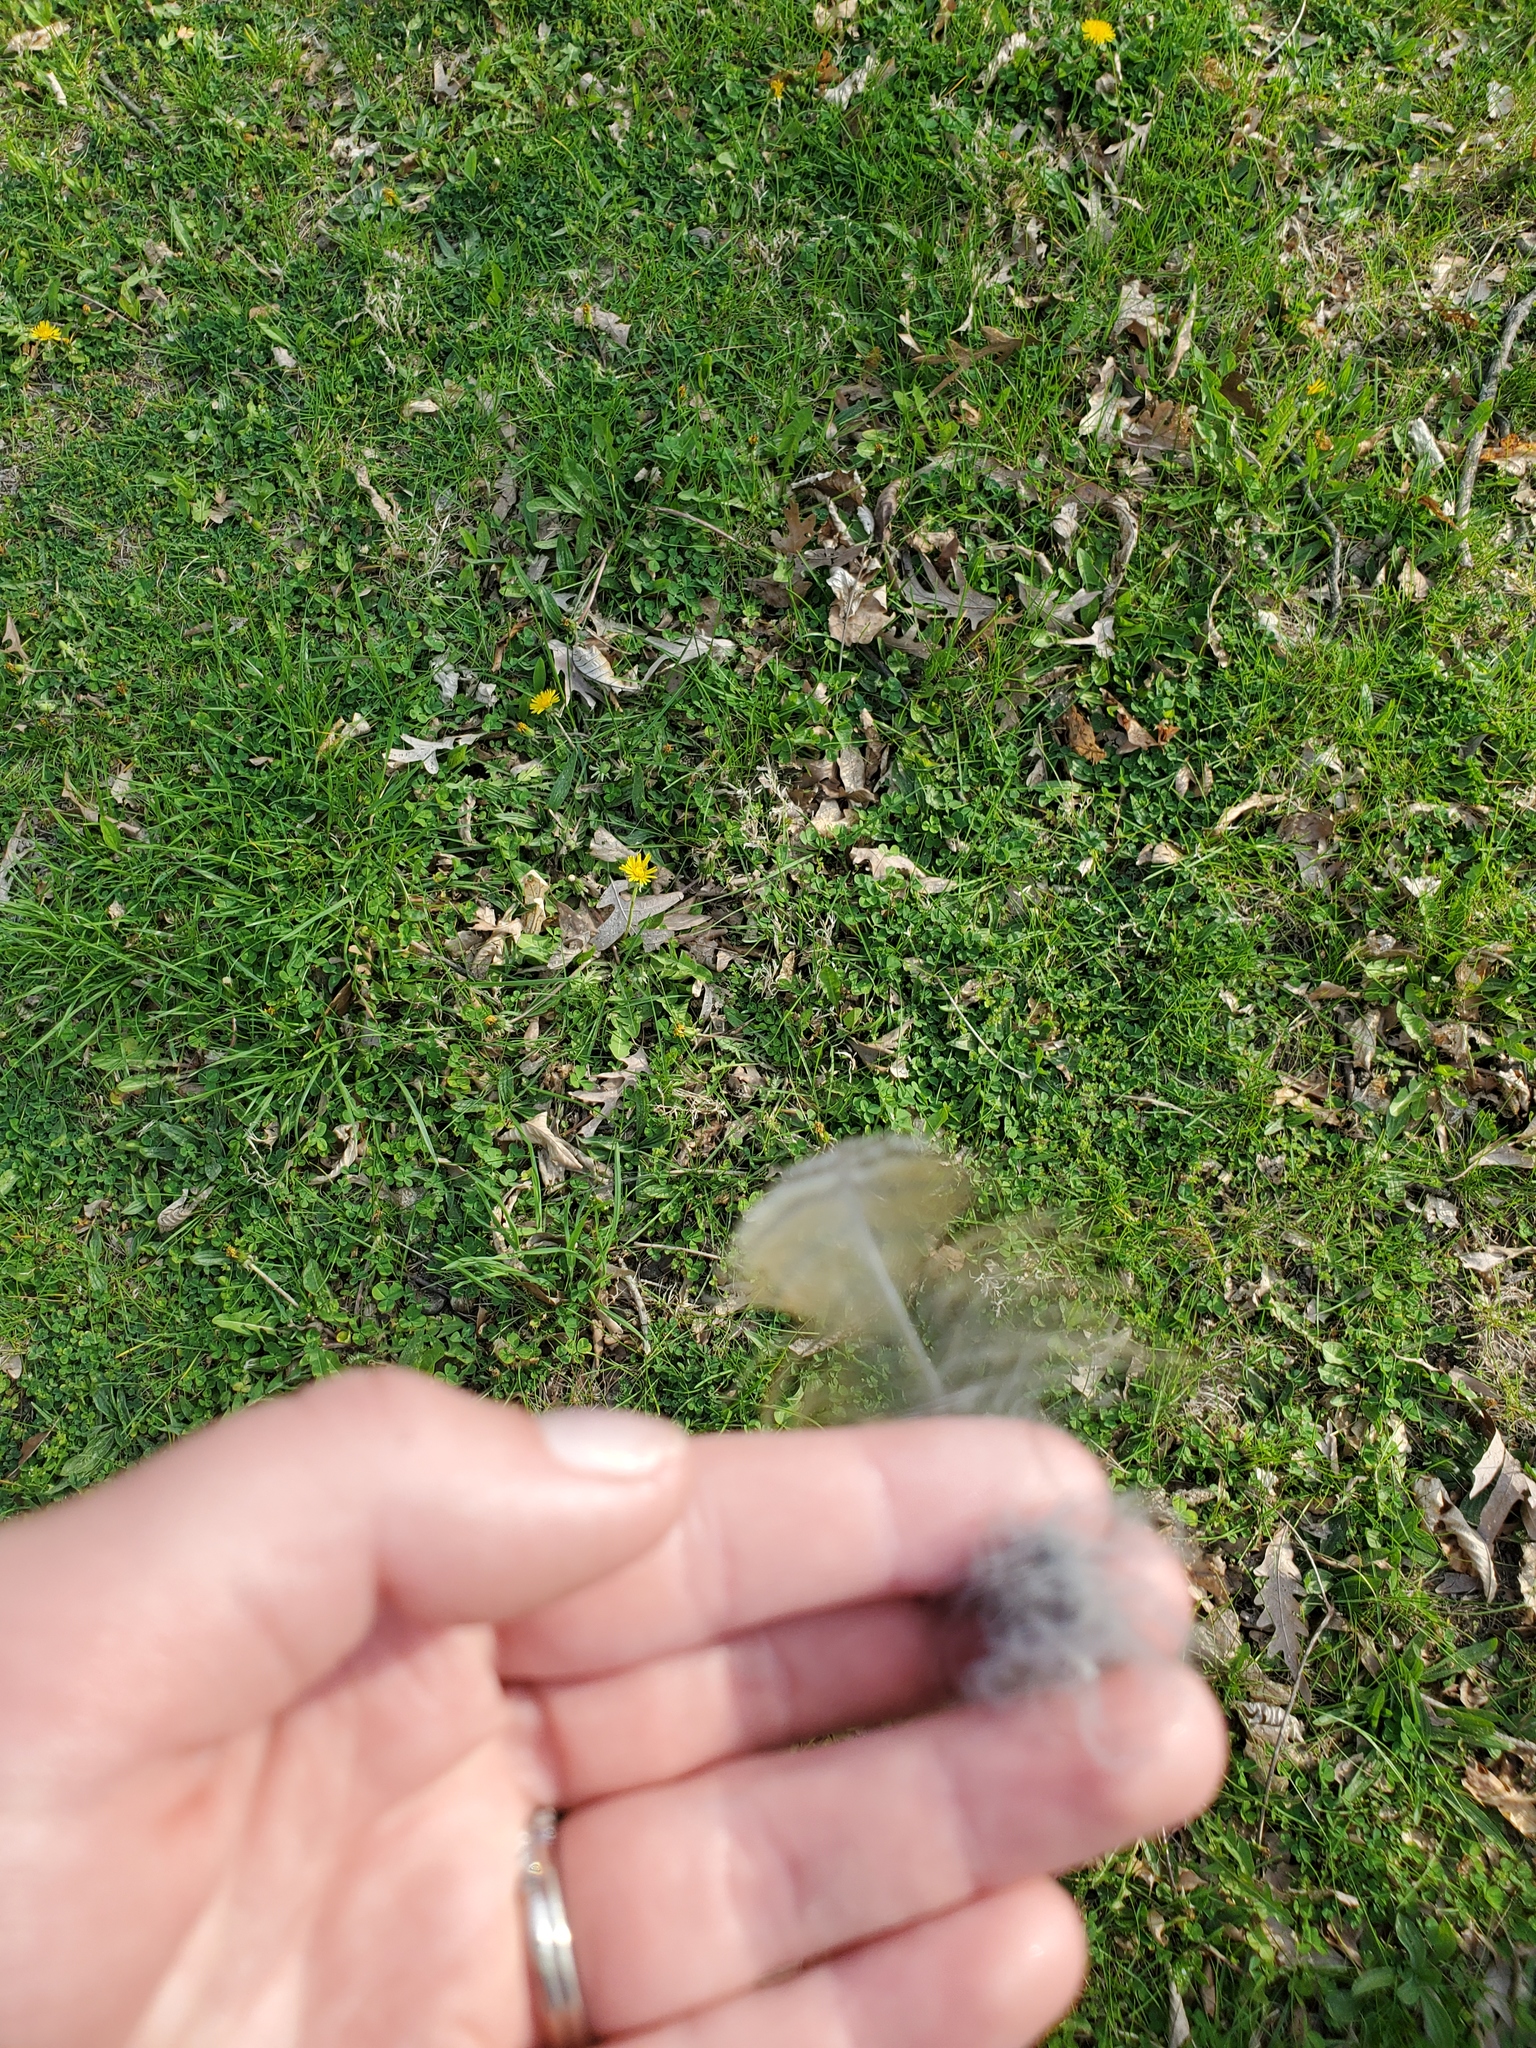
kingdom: Animalia
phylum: Chordata
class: Aves
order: Strigiformes
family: Strigidae
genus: Bubo
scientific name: Bubo virginianus
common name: Great horned owl
